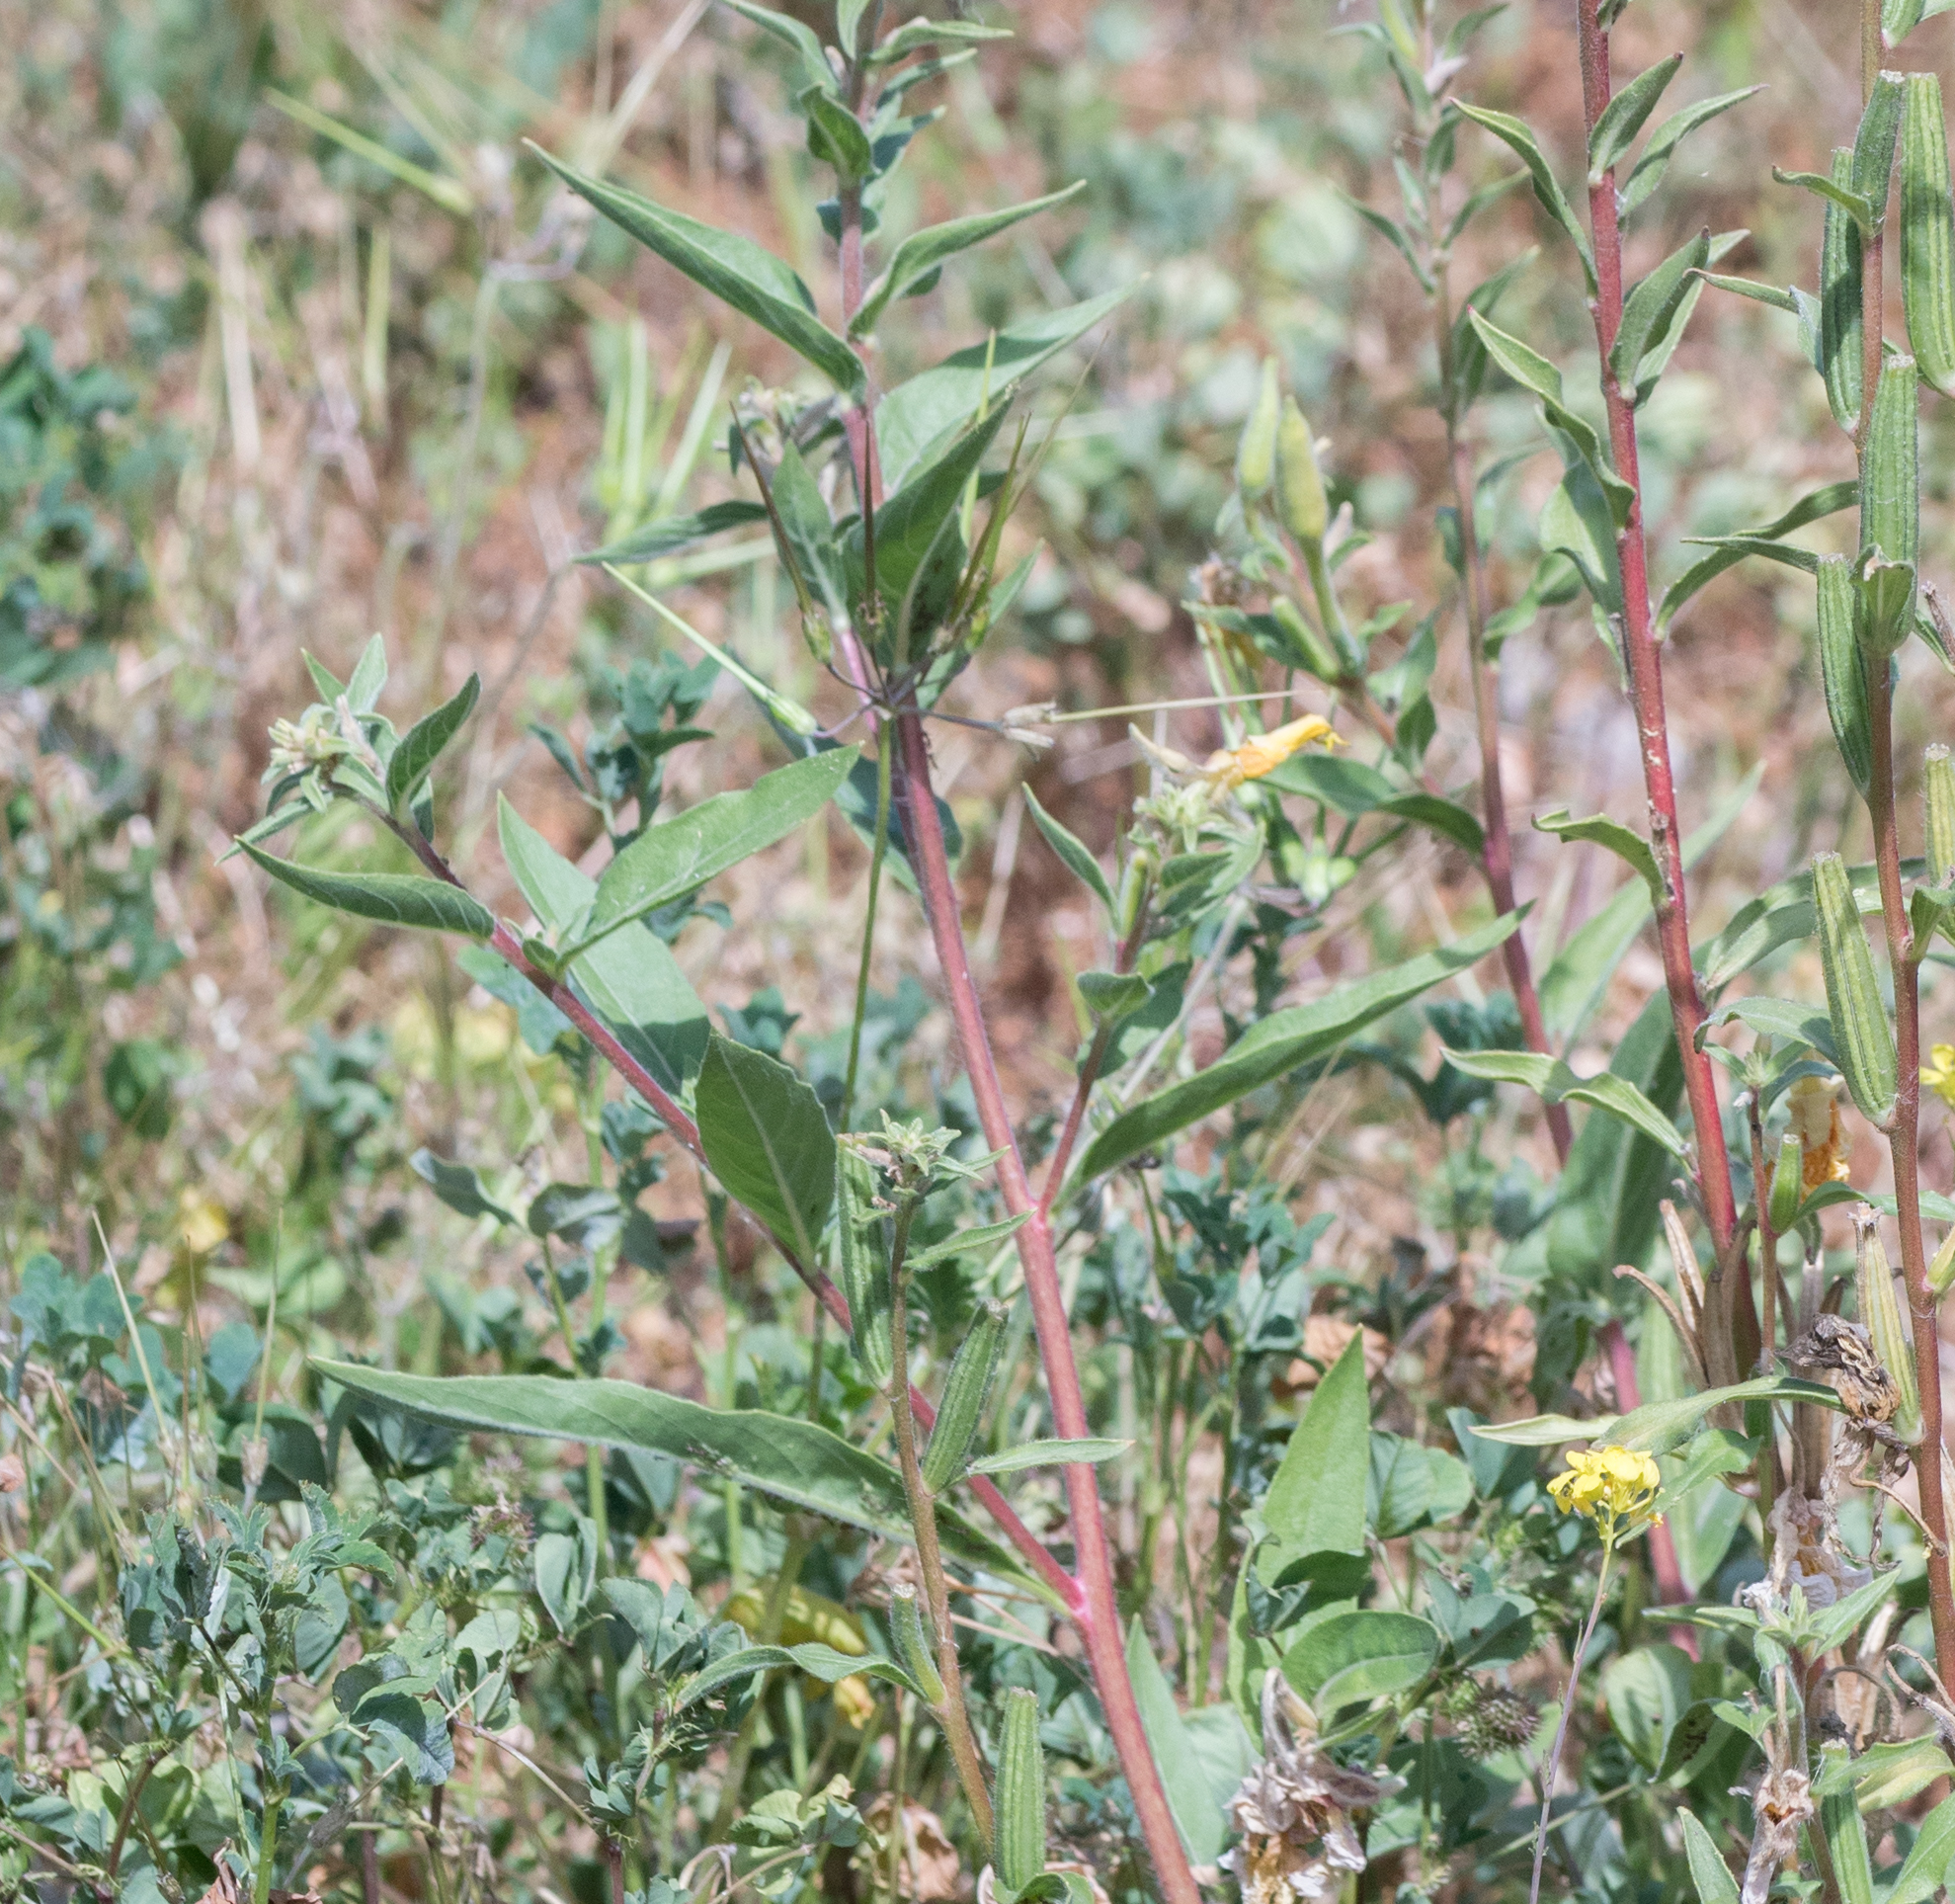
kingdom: Plantae
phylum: Tracheophyta
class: Magnoliopsida
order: Myrtales
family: Onagraceae
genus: Oenothera
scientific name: Oenothera elata
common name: Hooker's evening-primrose
